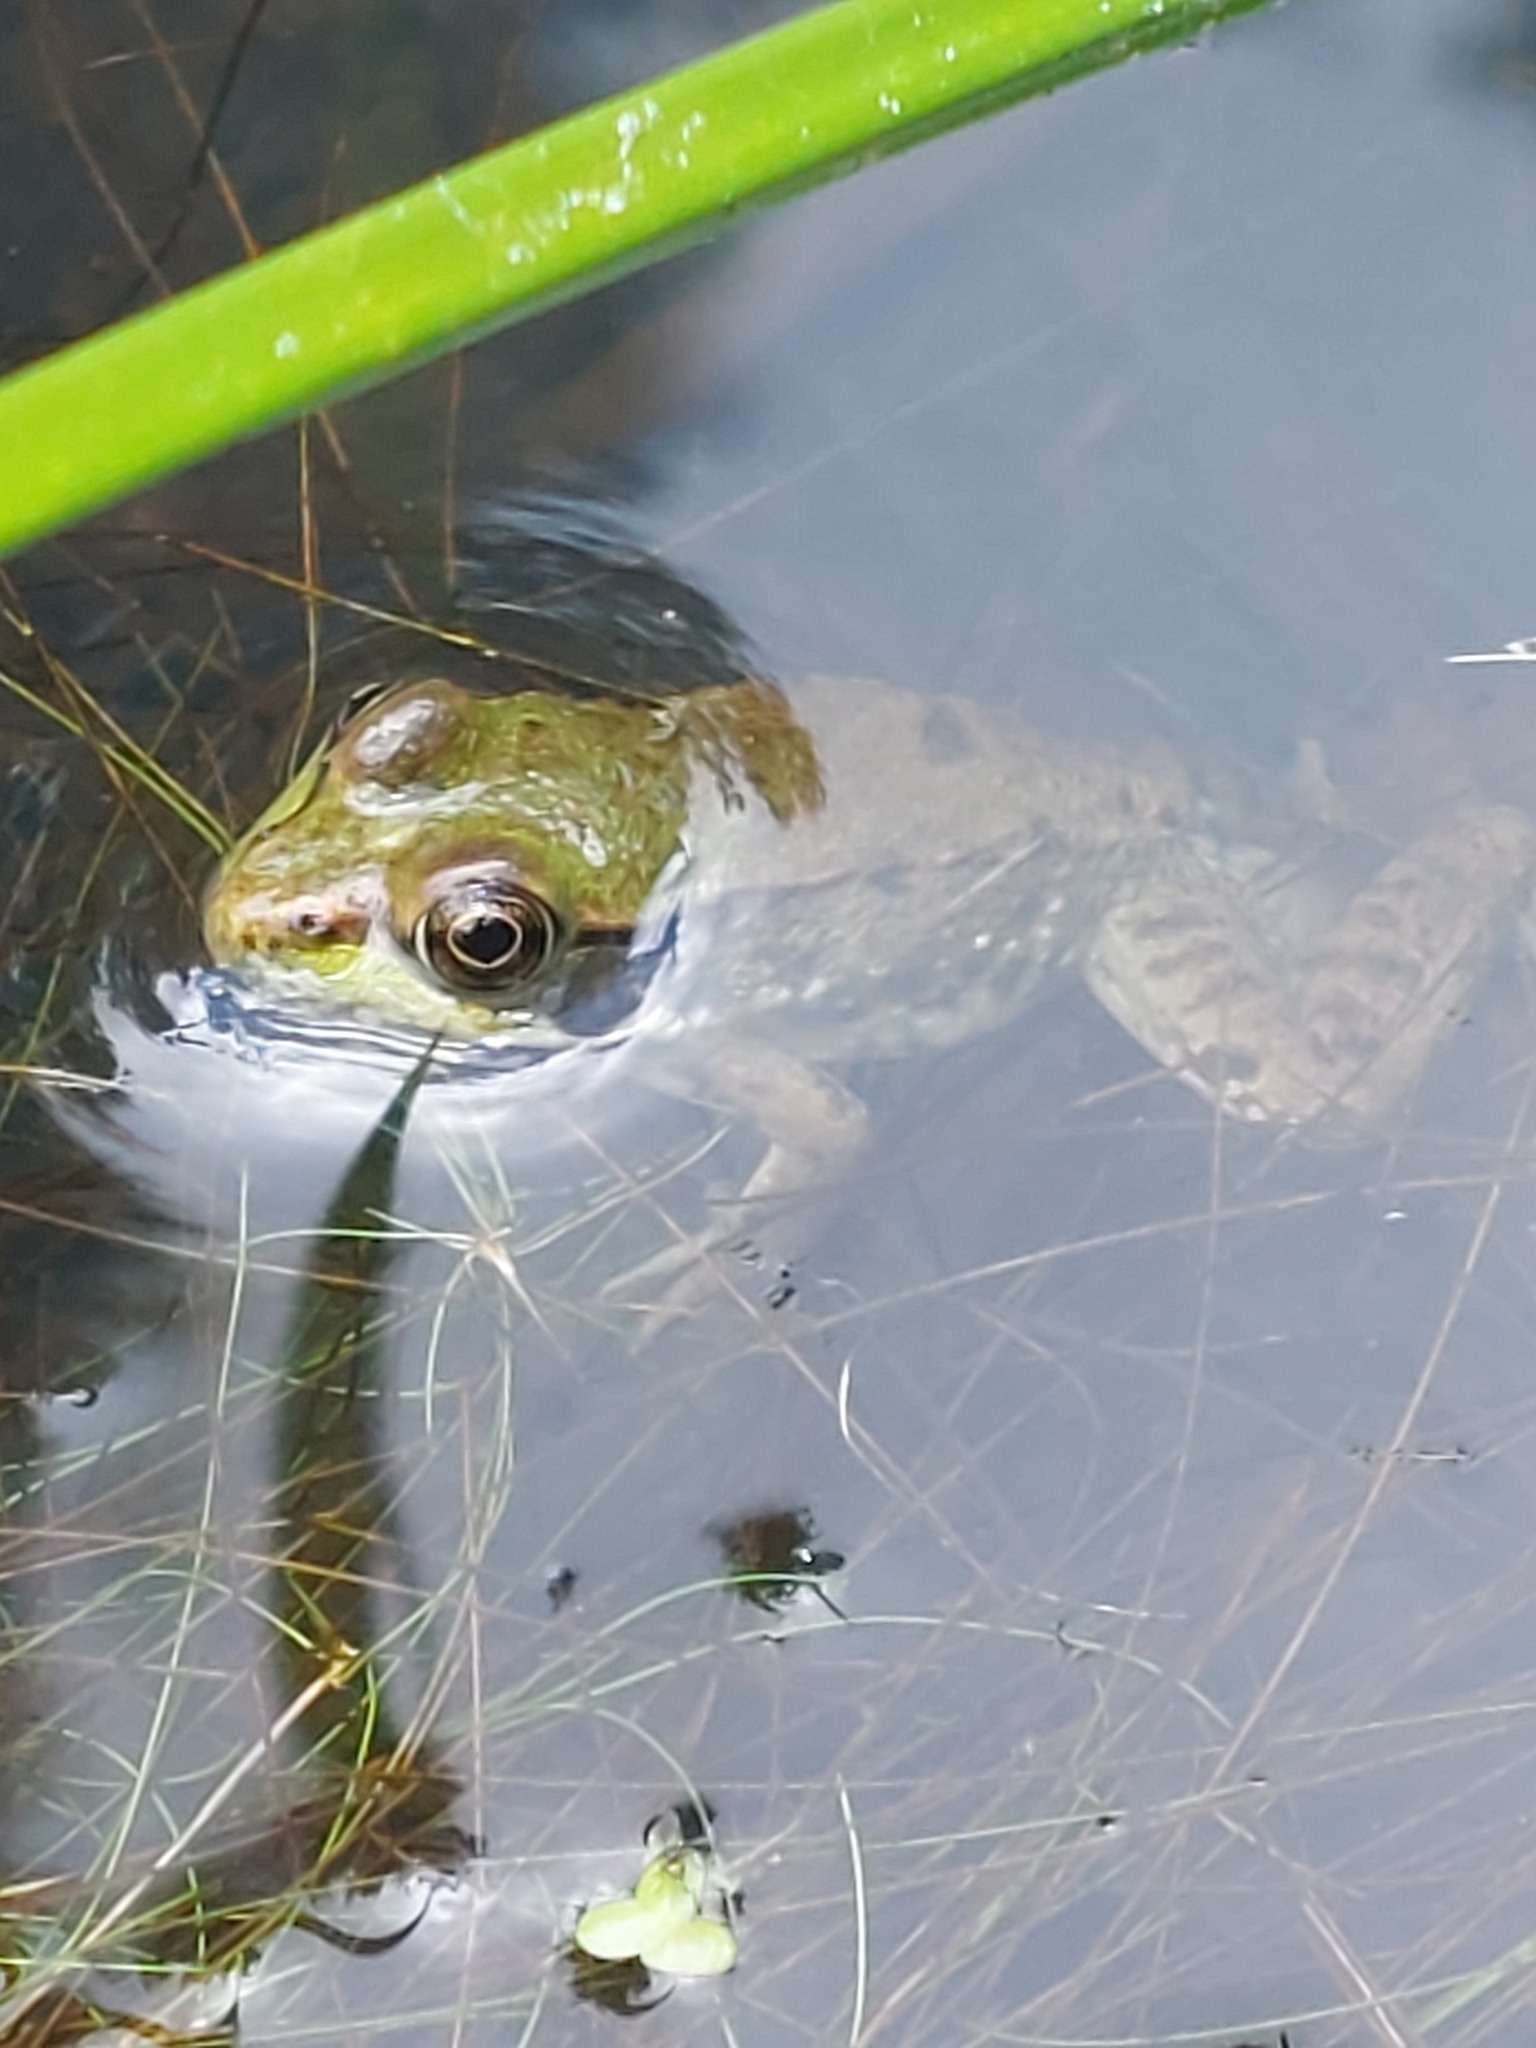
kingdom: Animalia
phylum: Chordata
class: Amphibia
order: Anura
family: Ranidae
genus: Lithobates
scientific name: Lithobates clamitans
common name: Green frog
